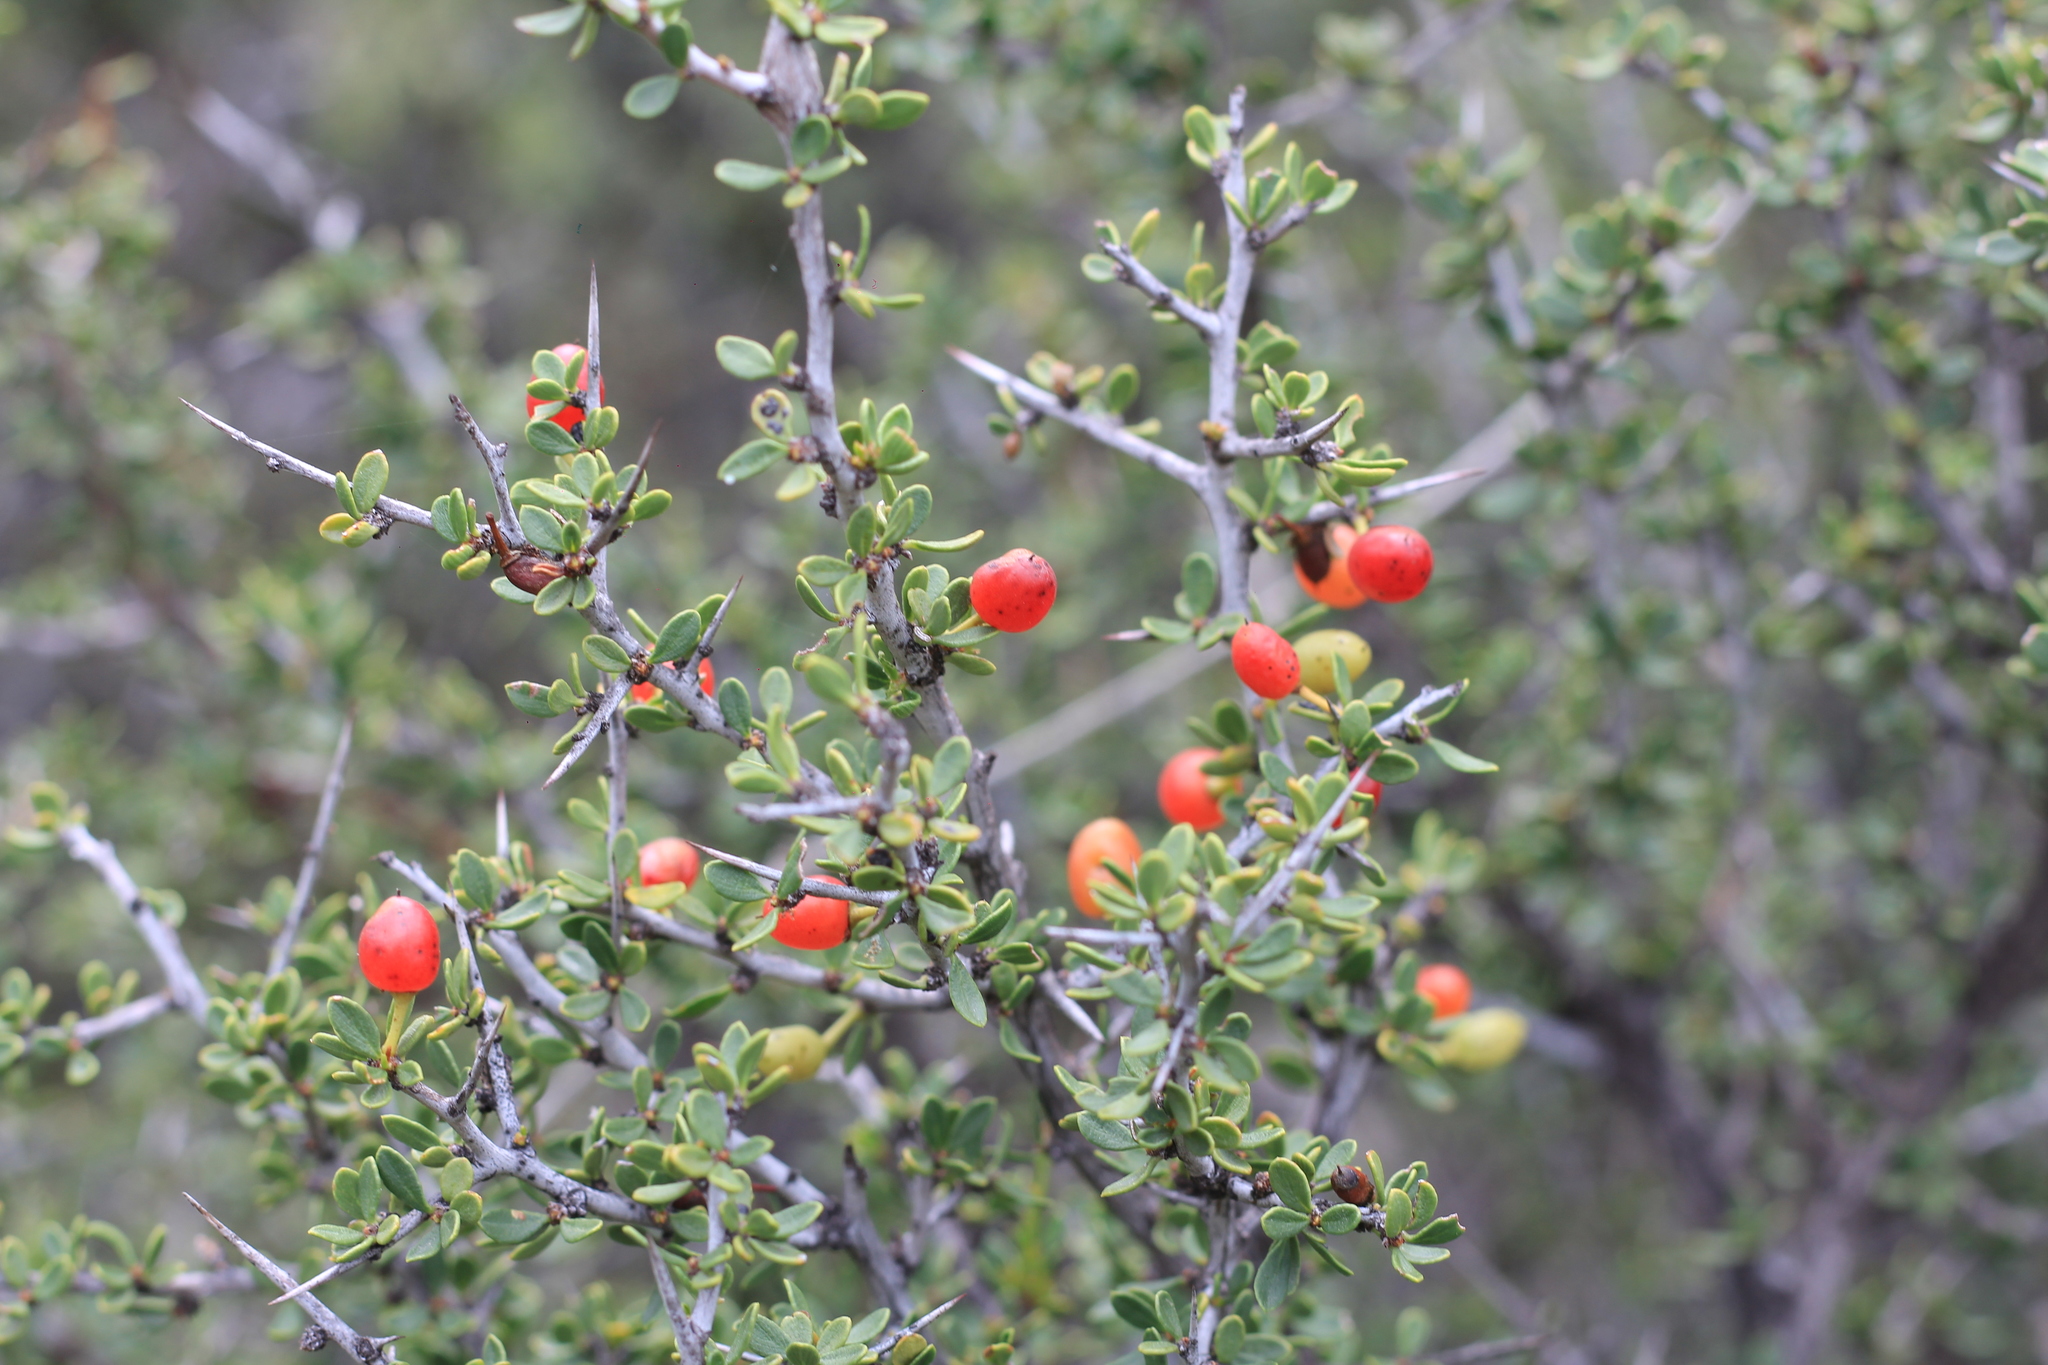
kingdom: Plantae
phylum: Tracheophyta
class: Magnoliopsida
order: Rosales
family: Rhamnaceae
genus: Condalia
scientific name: Condalia microphylla
